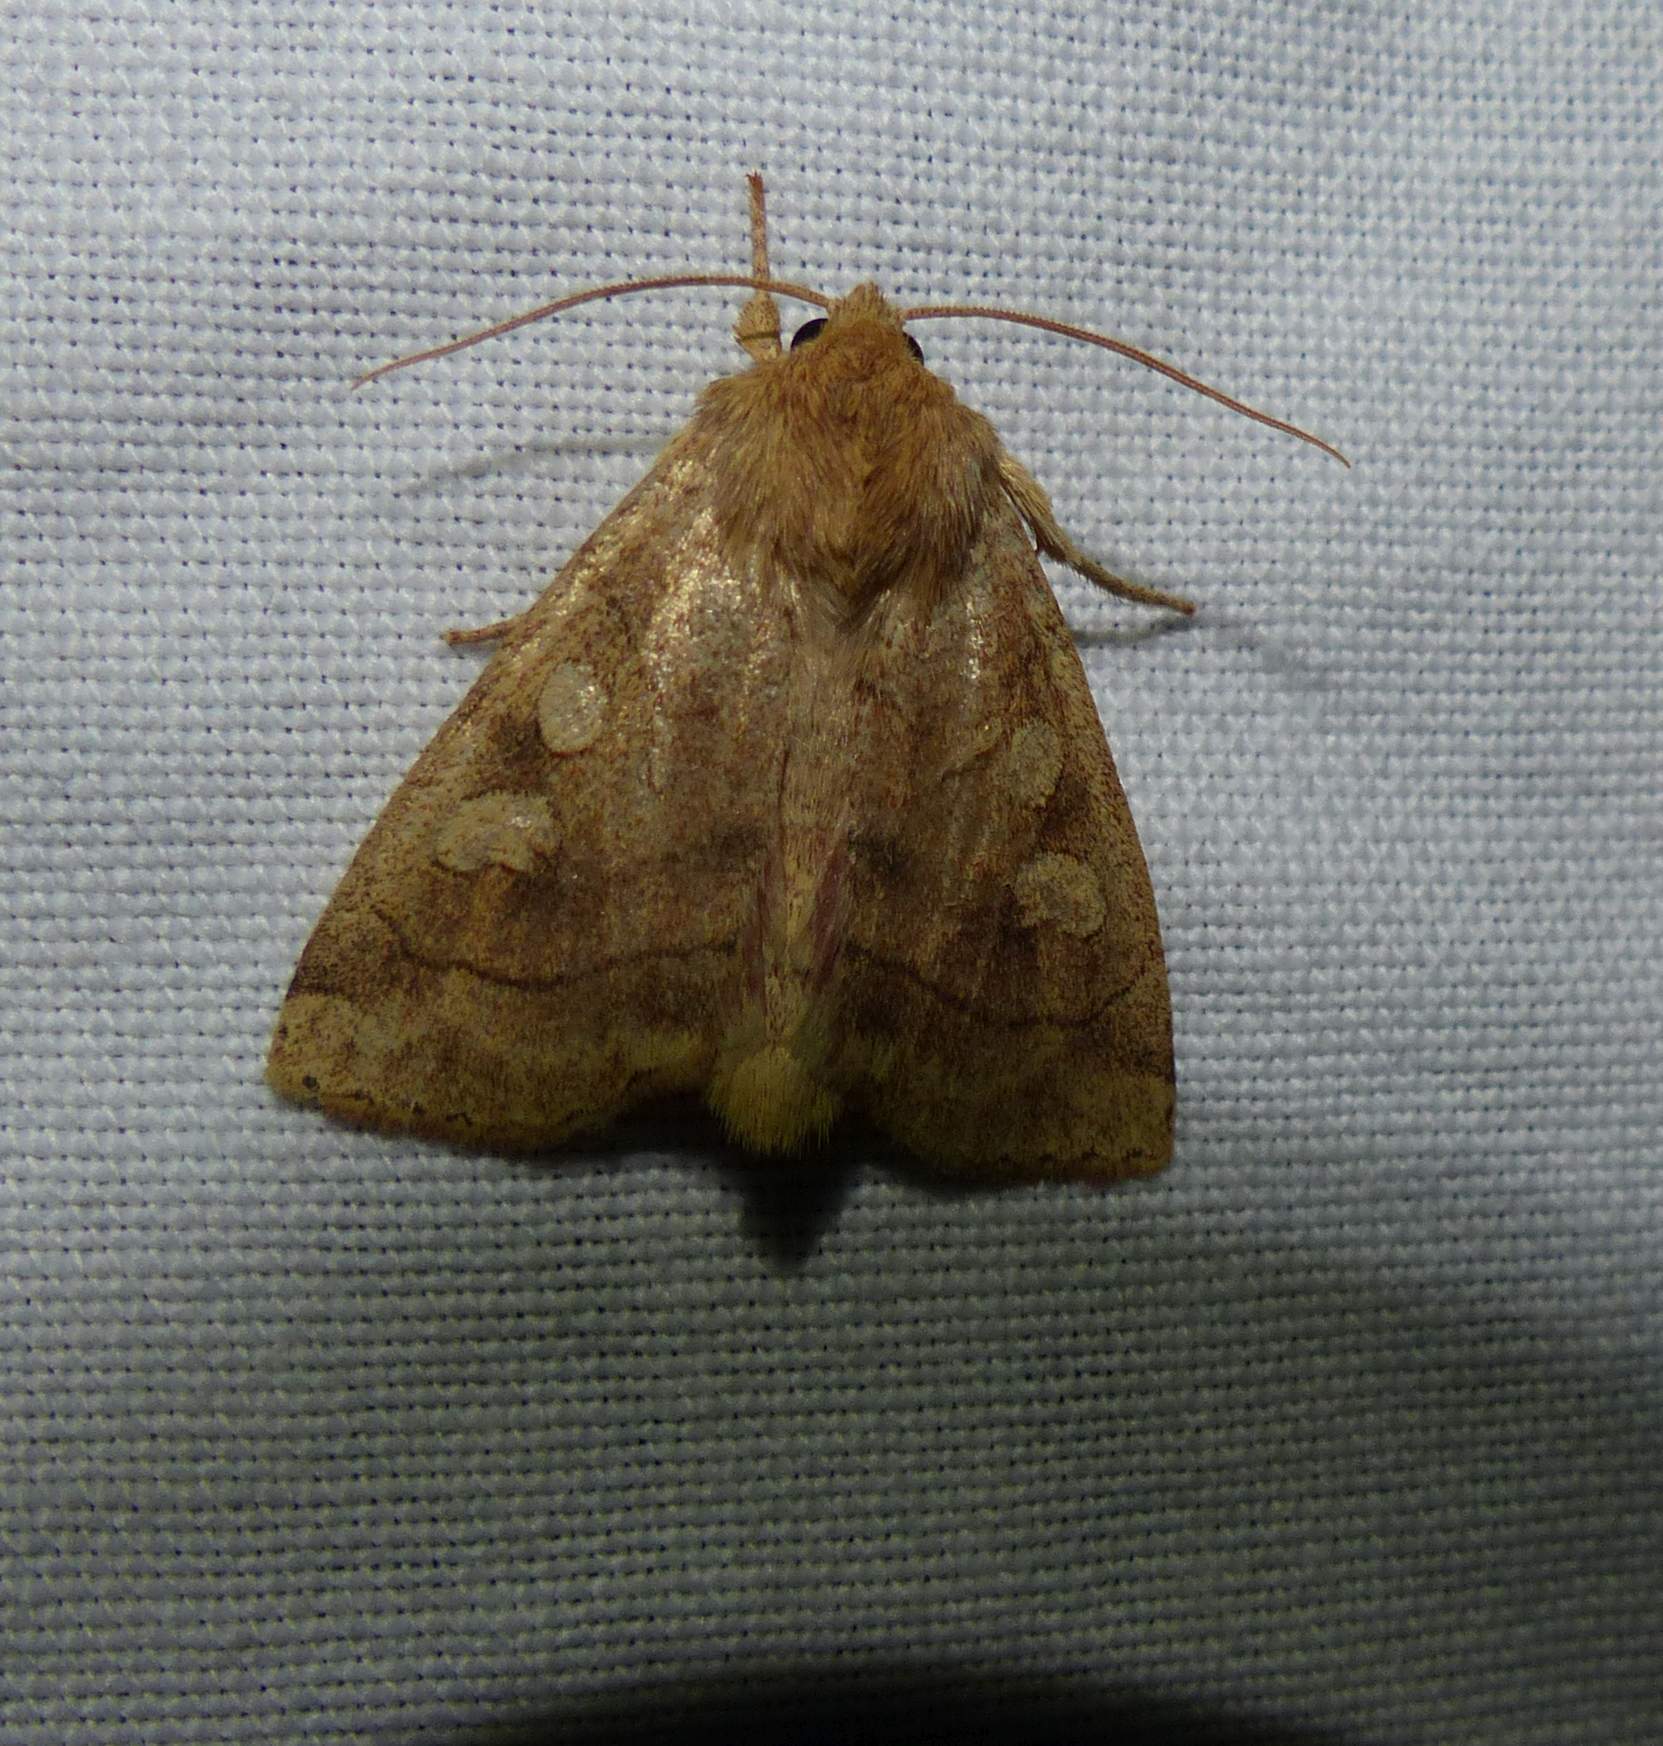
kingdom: Animalia
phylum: Arthropoda
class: Insecta
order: Lepidoptera
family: Noctuidae
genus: Enargia
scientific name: Enargia decolor
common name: Aspen twoleaf tier moth
